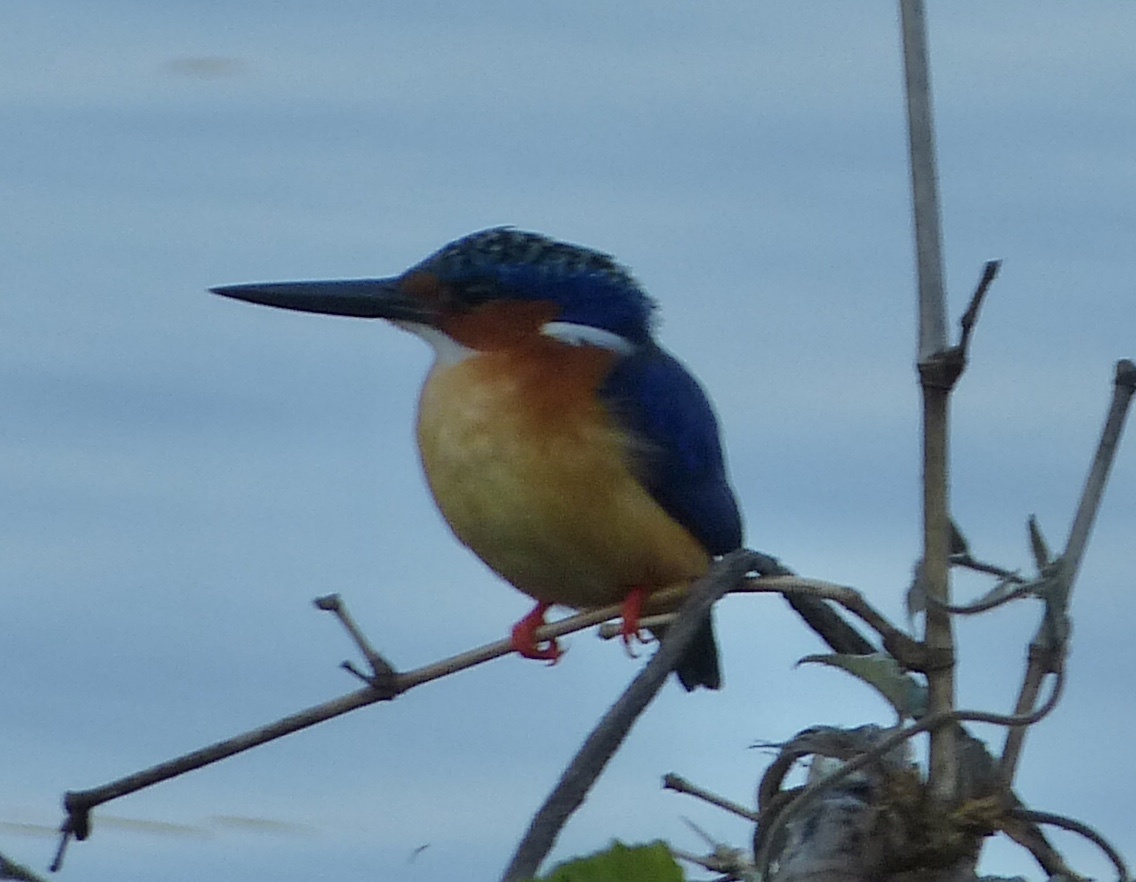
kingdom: Animalia
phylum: Chordata
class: Aves
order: Coraciiformes
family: Alcedinidae
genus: Corythornis
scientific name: Corythornis vintsioides
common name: Malagasy kingfisher
